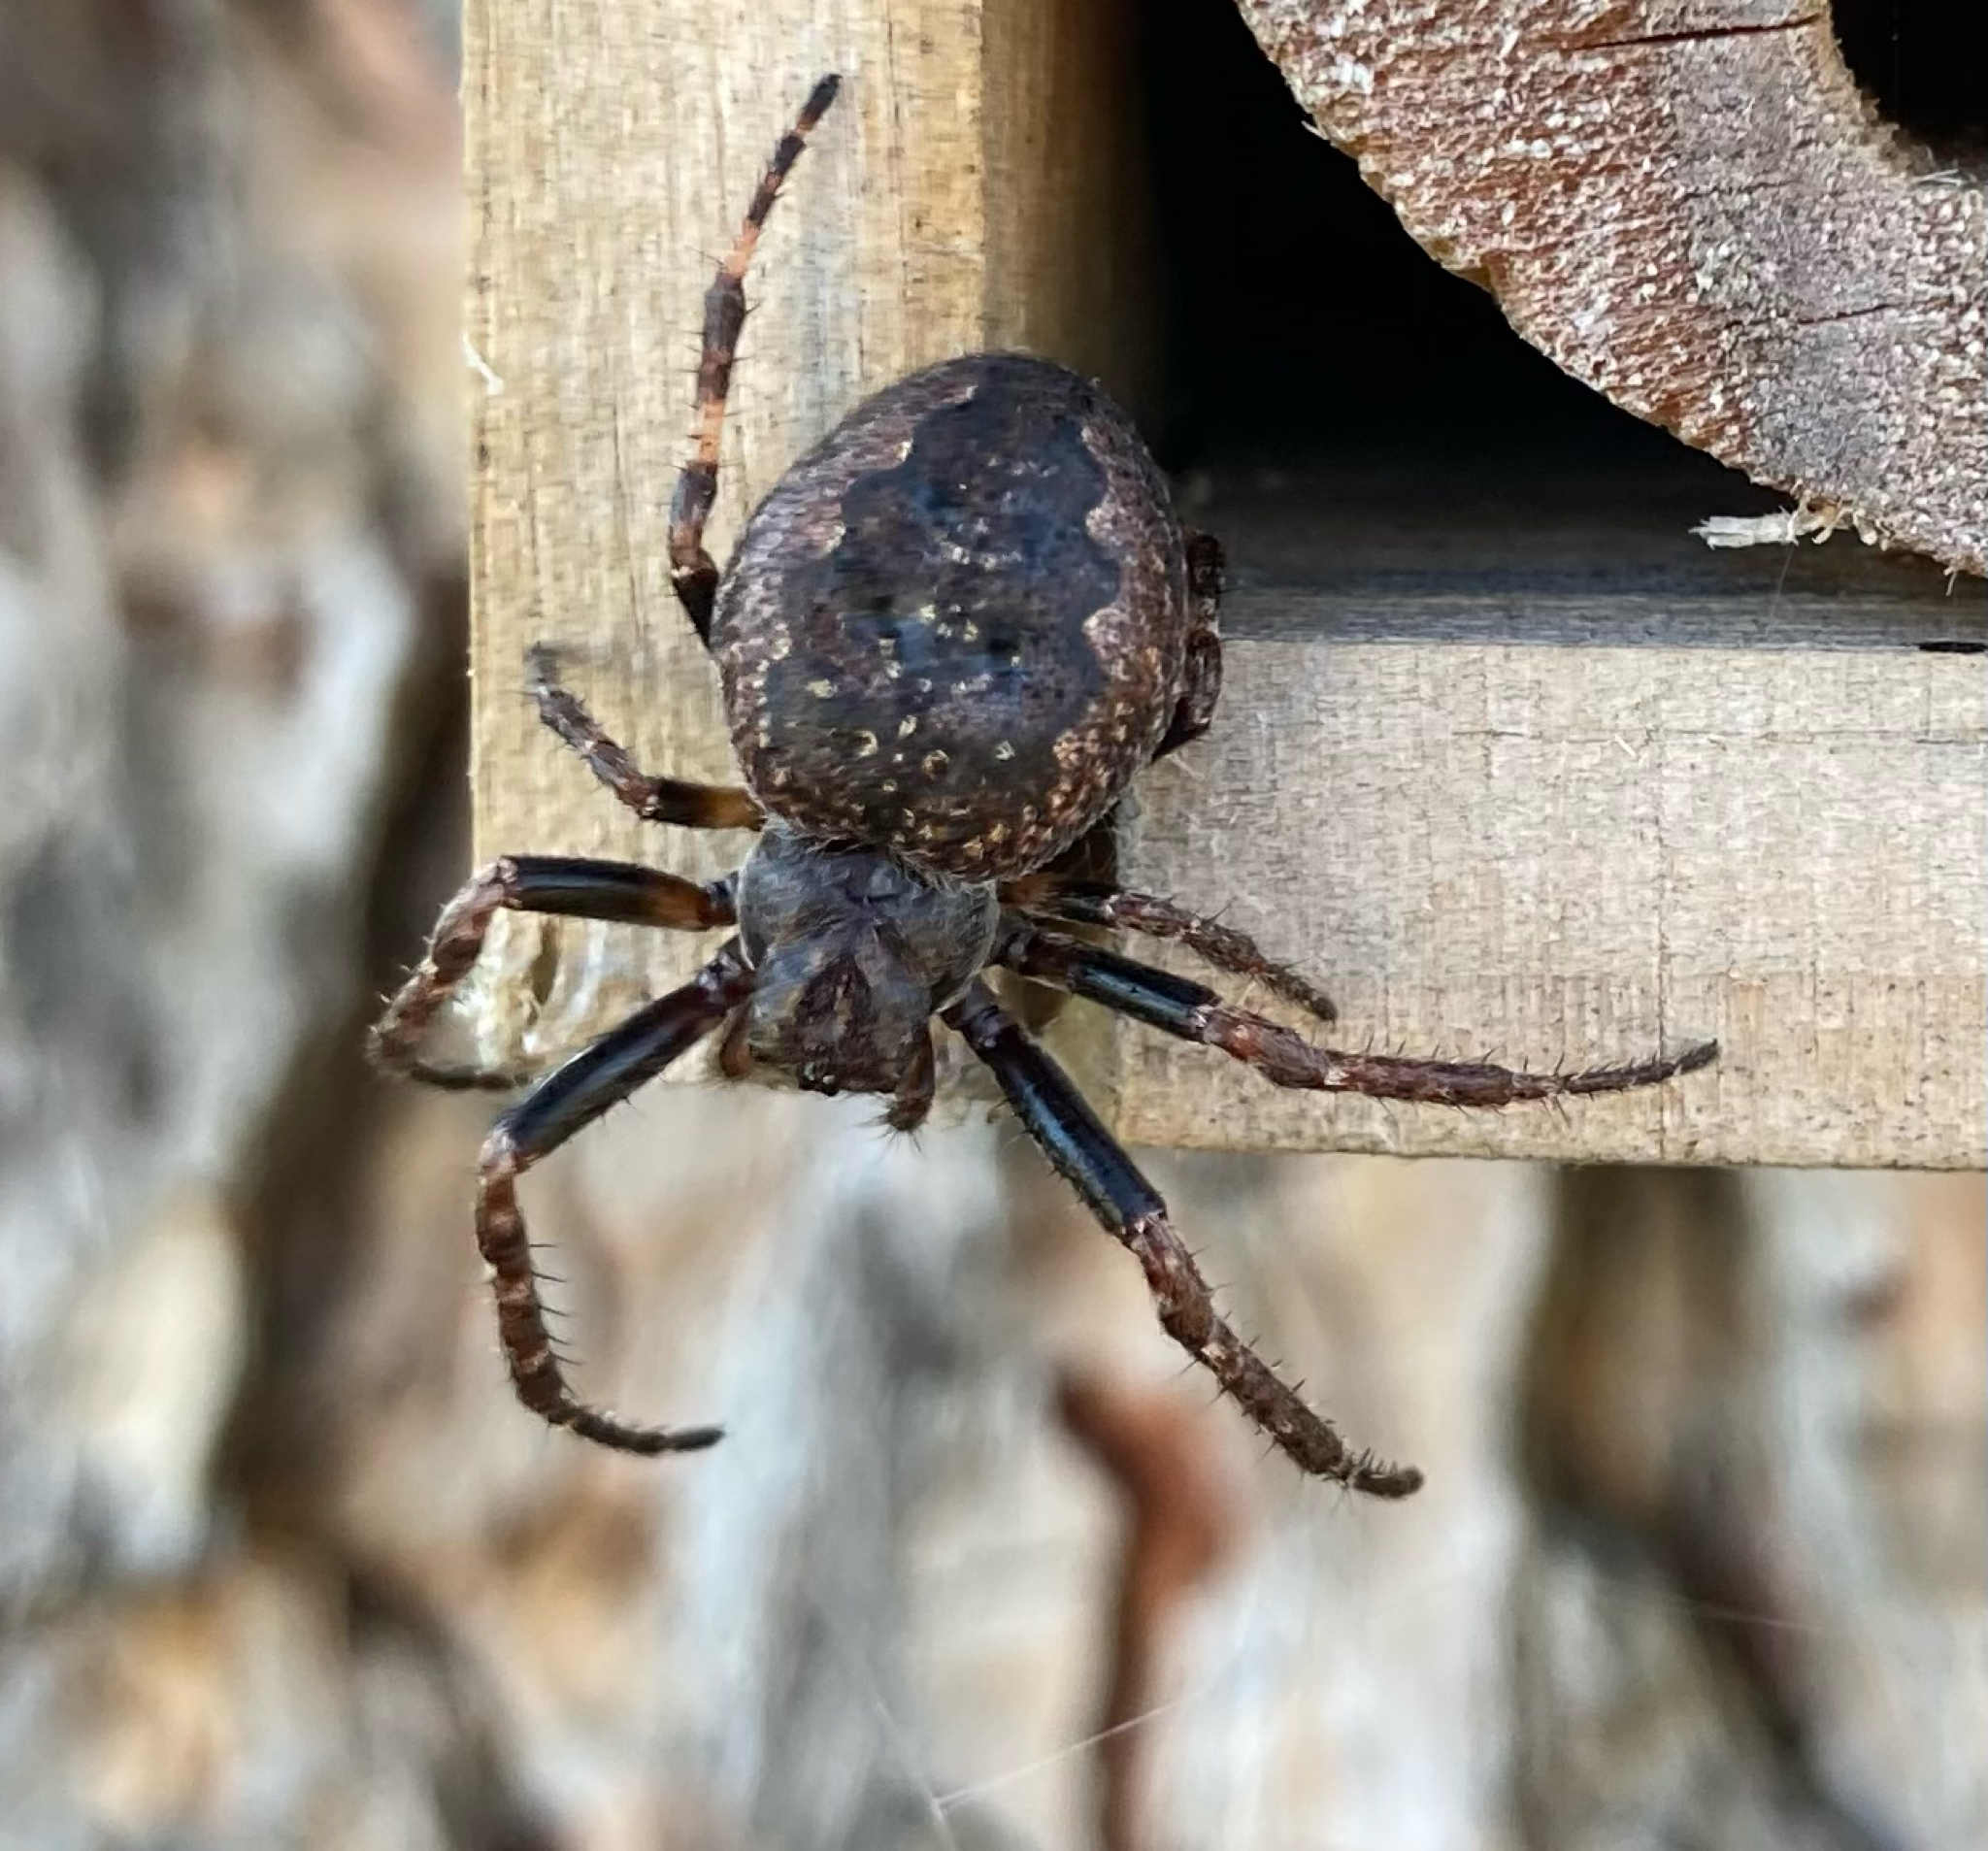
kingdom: Animalia
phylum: Arthropoda
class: Arachnida
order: Araneae
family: Araneidae
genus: Nuctenea
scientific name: Nuctenea umbratica
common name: Toad spider
